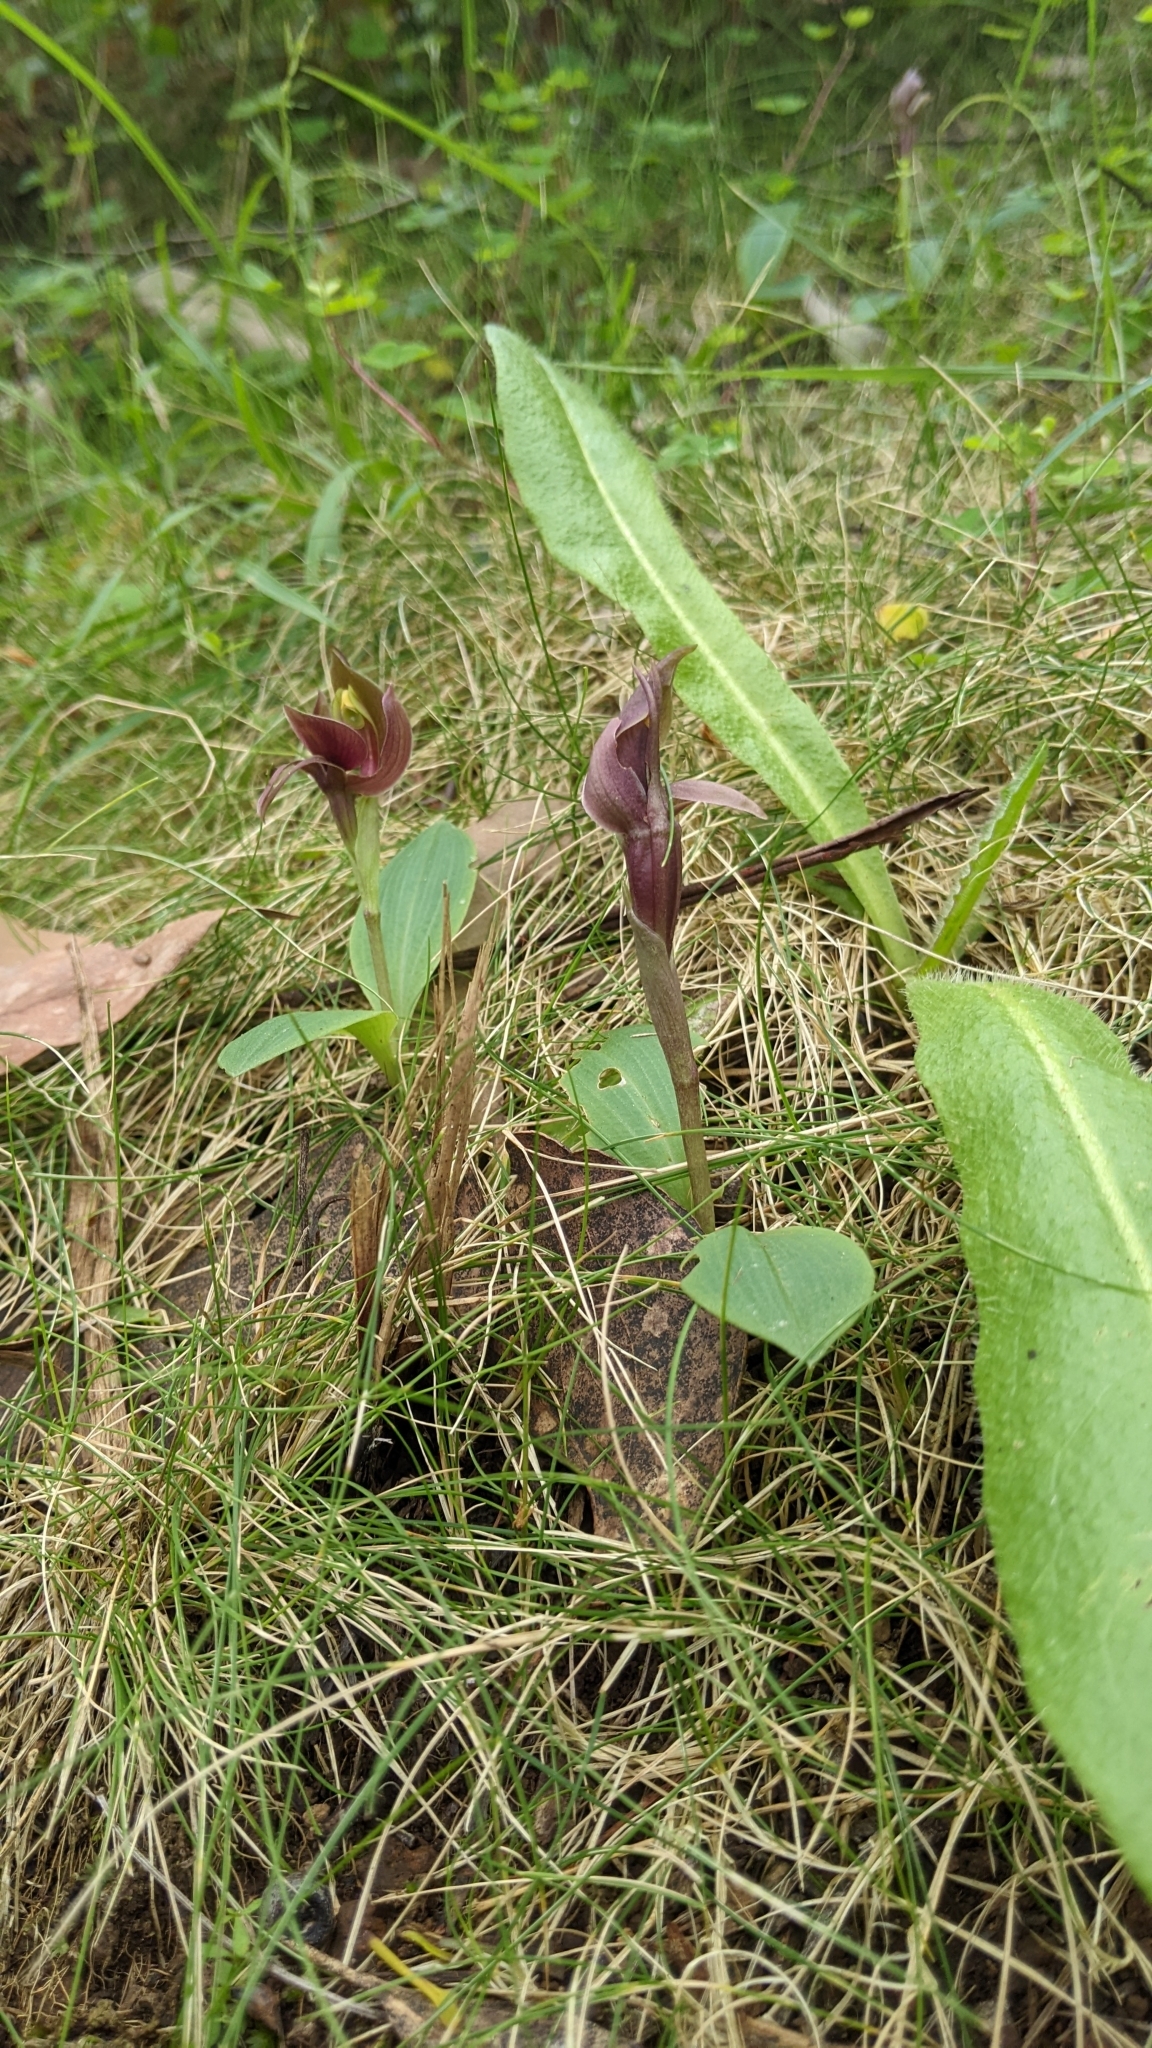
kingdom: Plantae
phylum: Tracheophyta
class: Liliopsida
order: Asparagales
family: Orchidaceae
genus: Chiloglottis
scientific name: Chiloglottis valida
